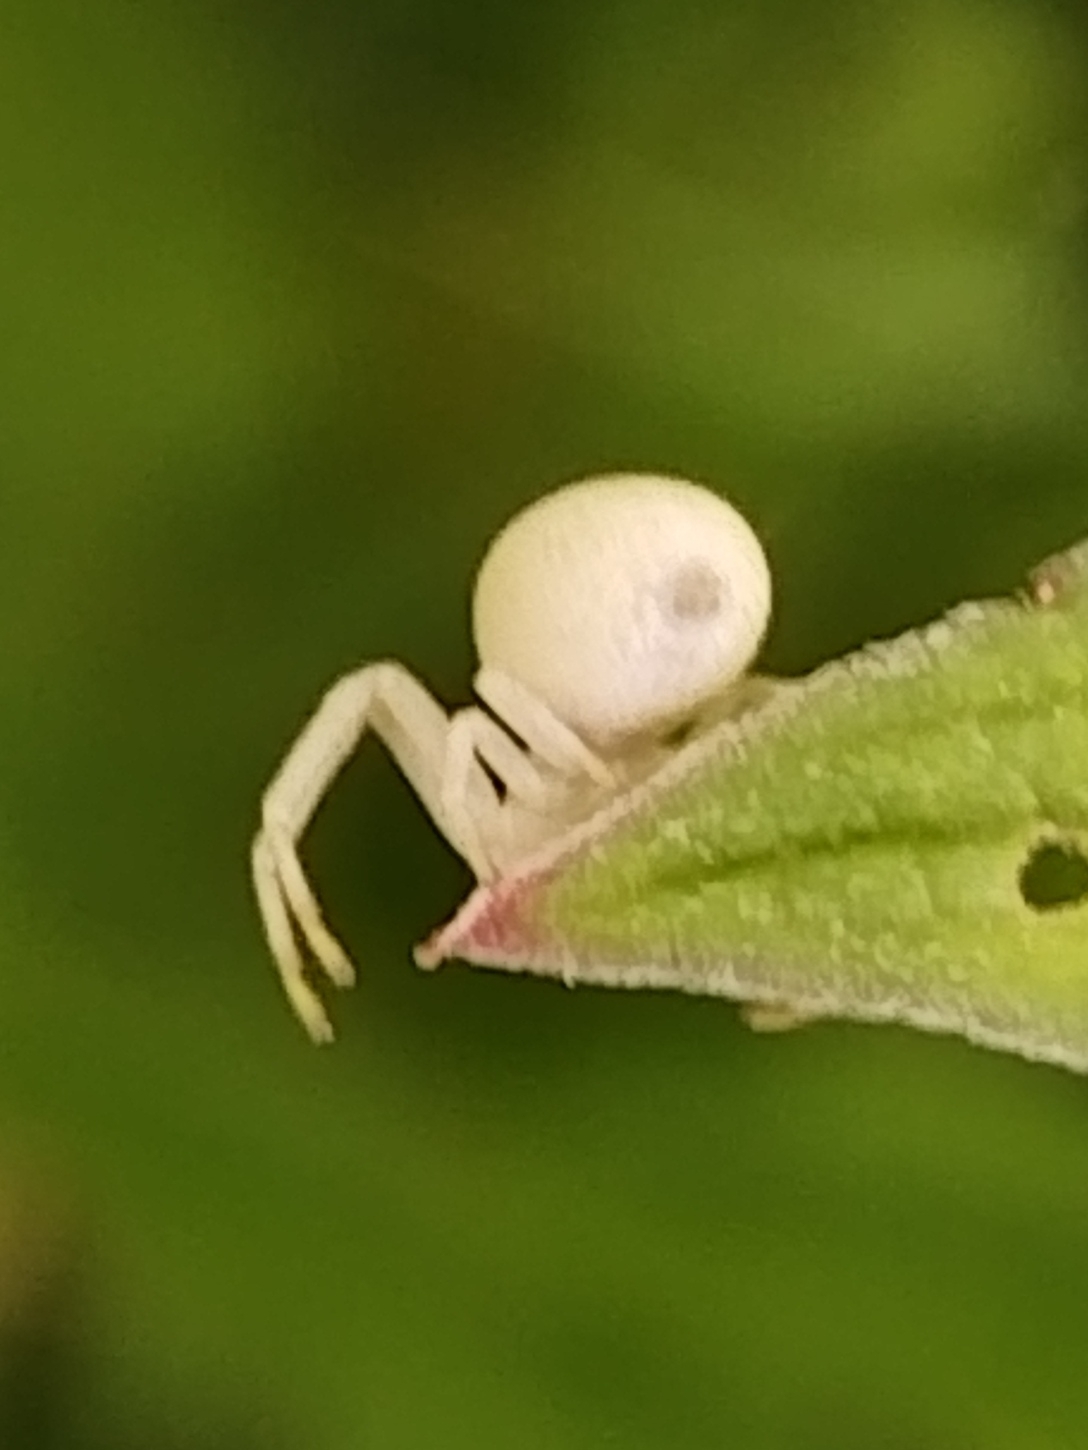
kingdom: Animalia
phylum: Arthropoda
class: Arachnida
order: Araneae
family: Thomisidae
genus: Misumena
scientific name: Misumena vatia
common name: Goldenrod crab spider
